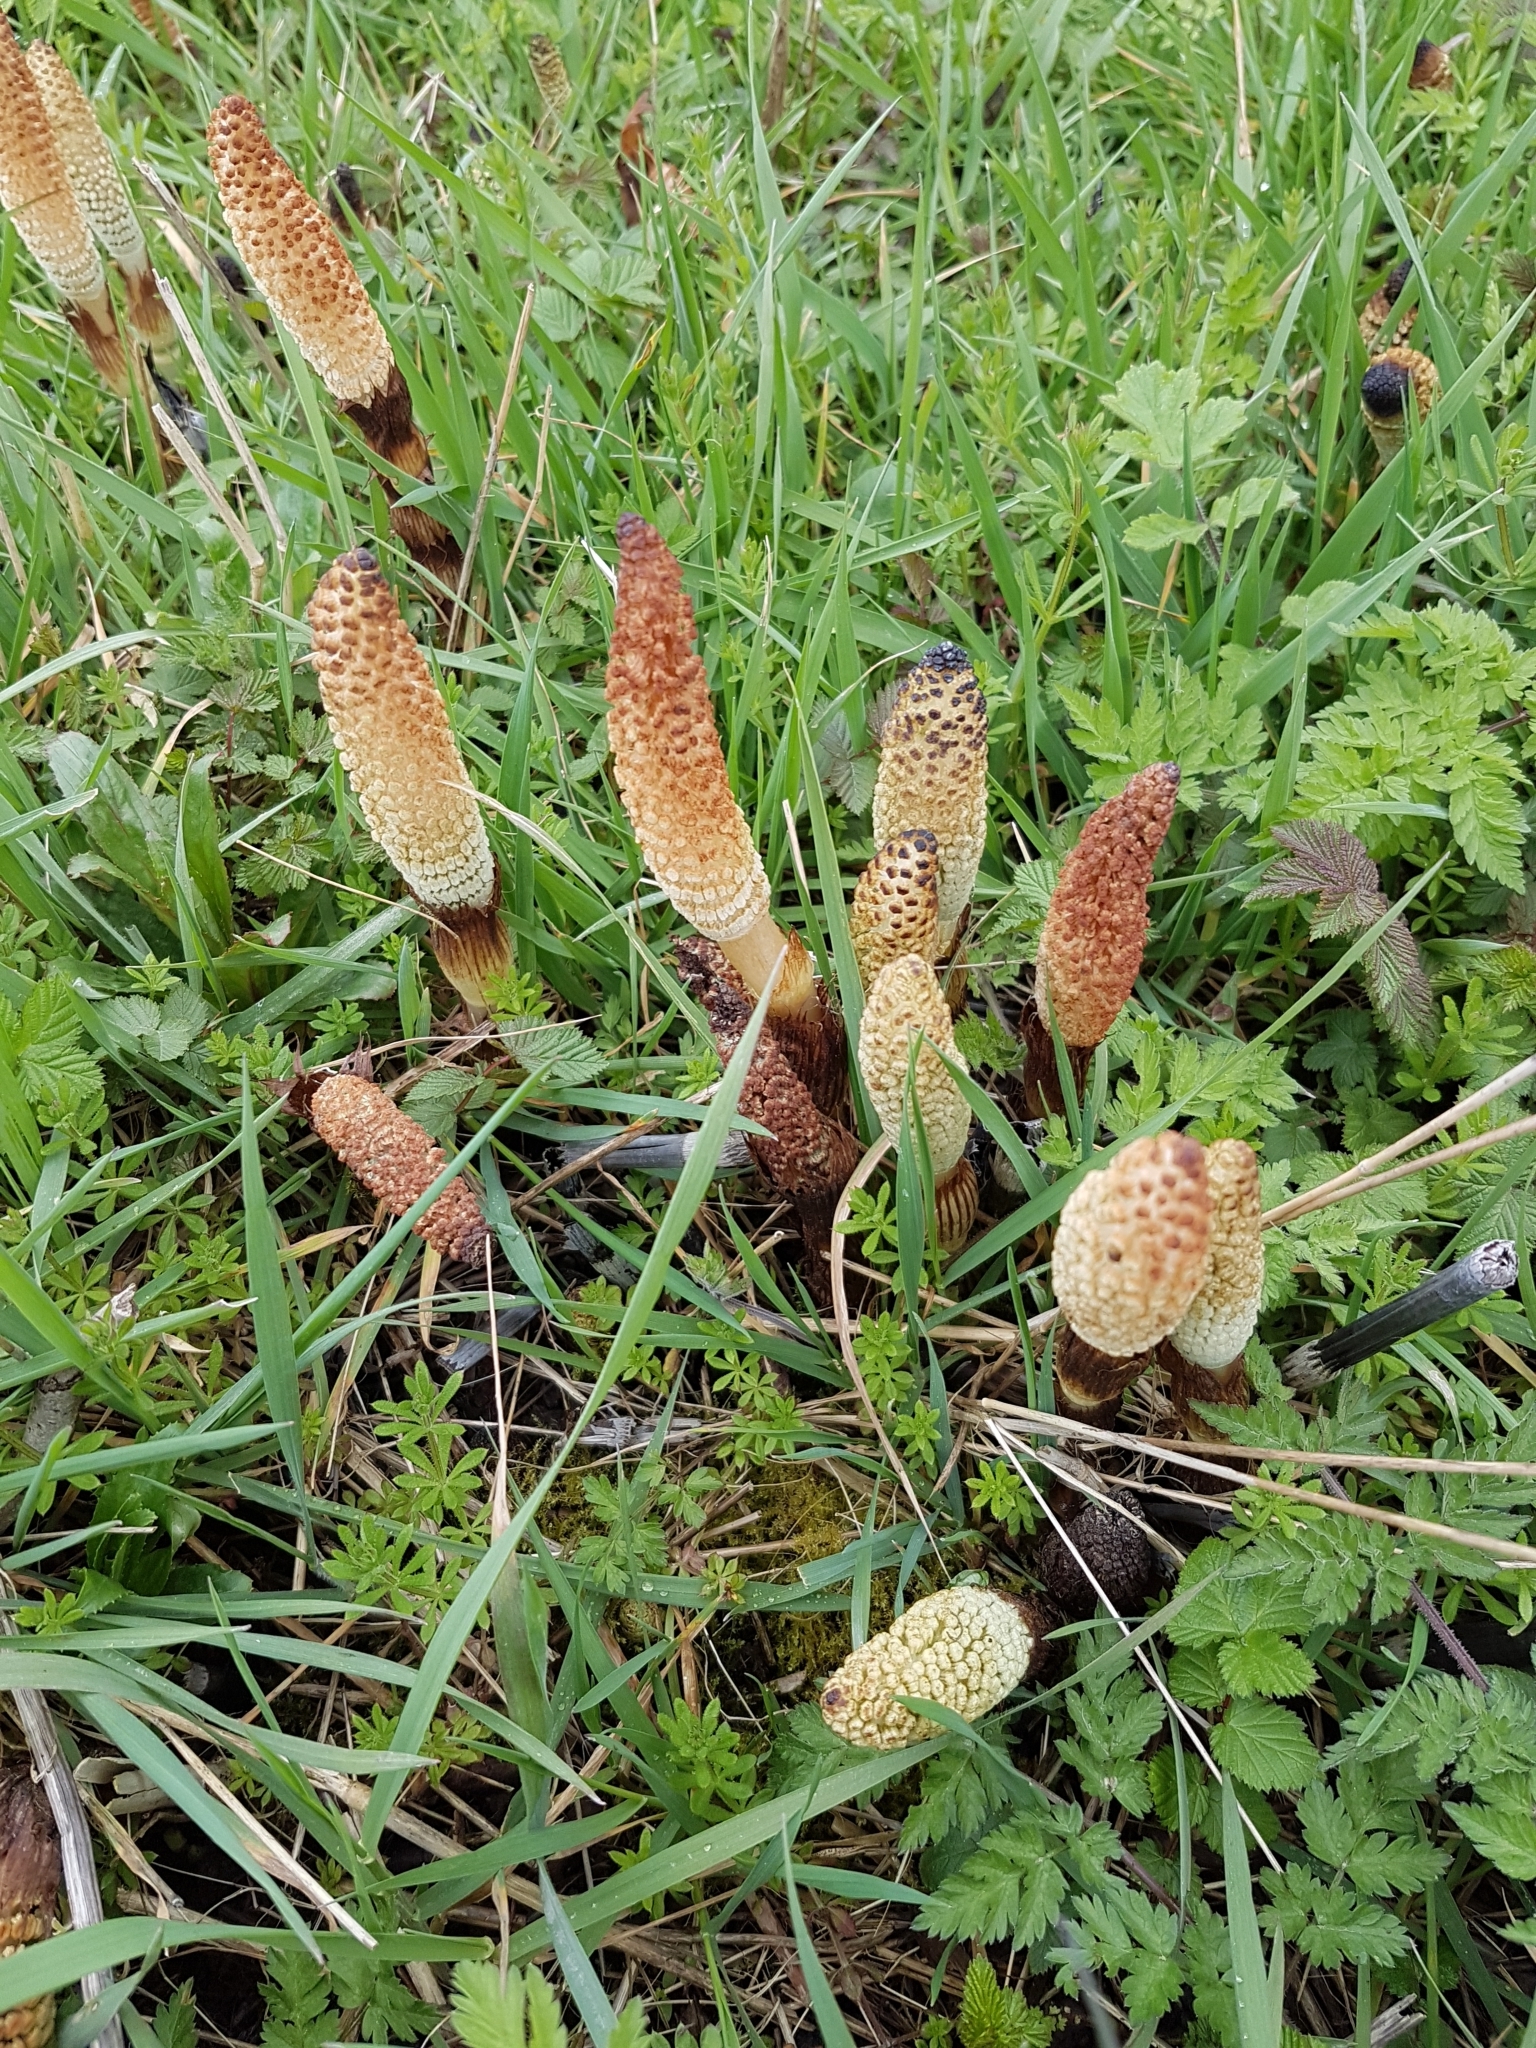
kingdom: Plantae
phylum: Tracheophyta
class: Polypodiopsida
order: Equisetales
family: Equisetaceae
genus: Equisetum
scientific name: Equisetum telmateia
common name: Great horsetail
